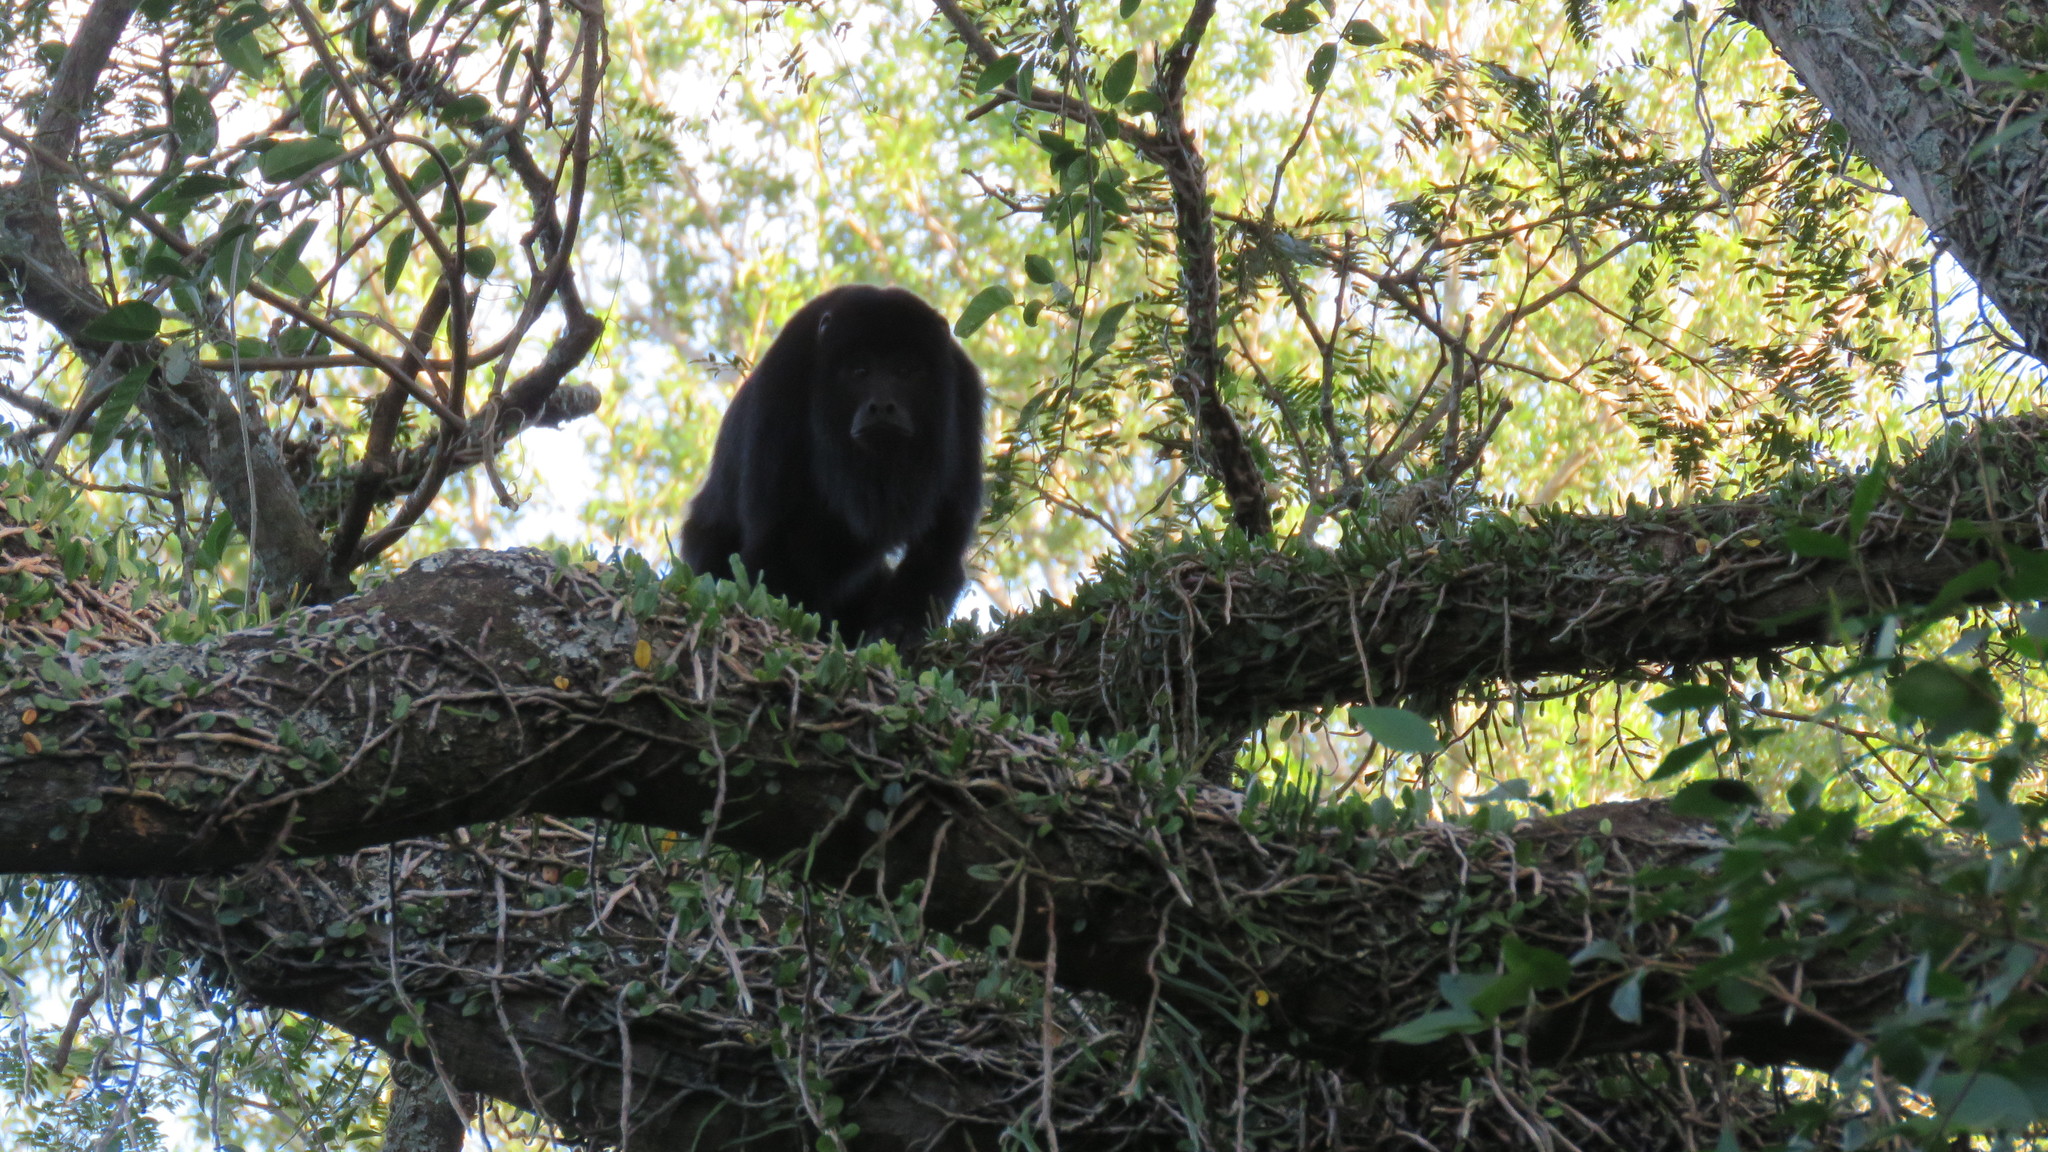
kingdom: Animalia
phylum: Chordata
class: Mammalia
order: Primates
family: Atelidae
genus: Alouatta
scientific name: Alouatta caraya
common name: Black howler
